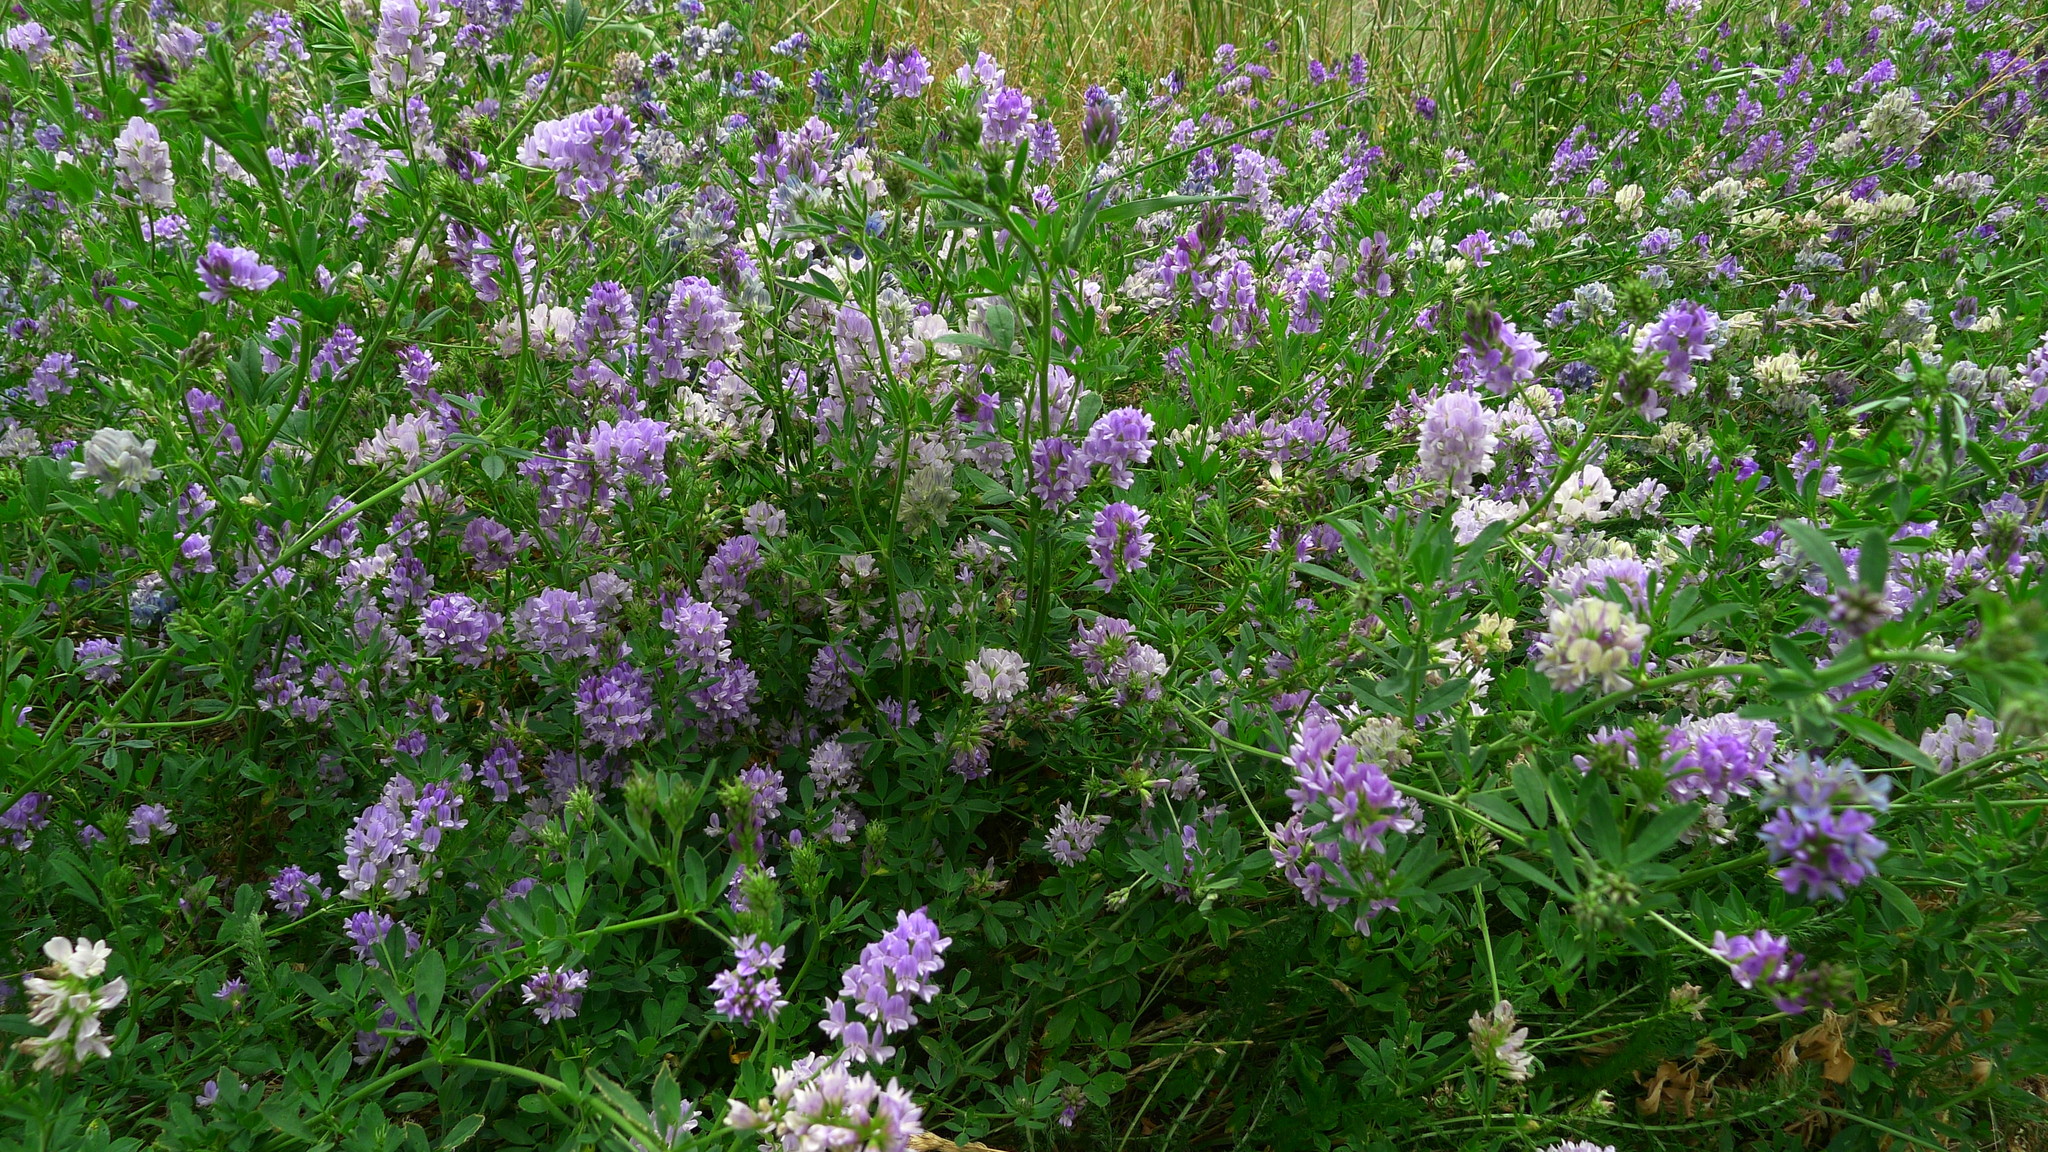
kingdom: Plantae
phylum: Tracheophyta
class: Magnoliopsida
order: Fabales
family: Fabaceae
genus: Medicago
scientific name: Medicago sativa
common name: Alfalfa
